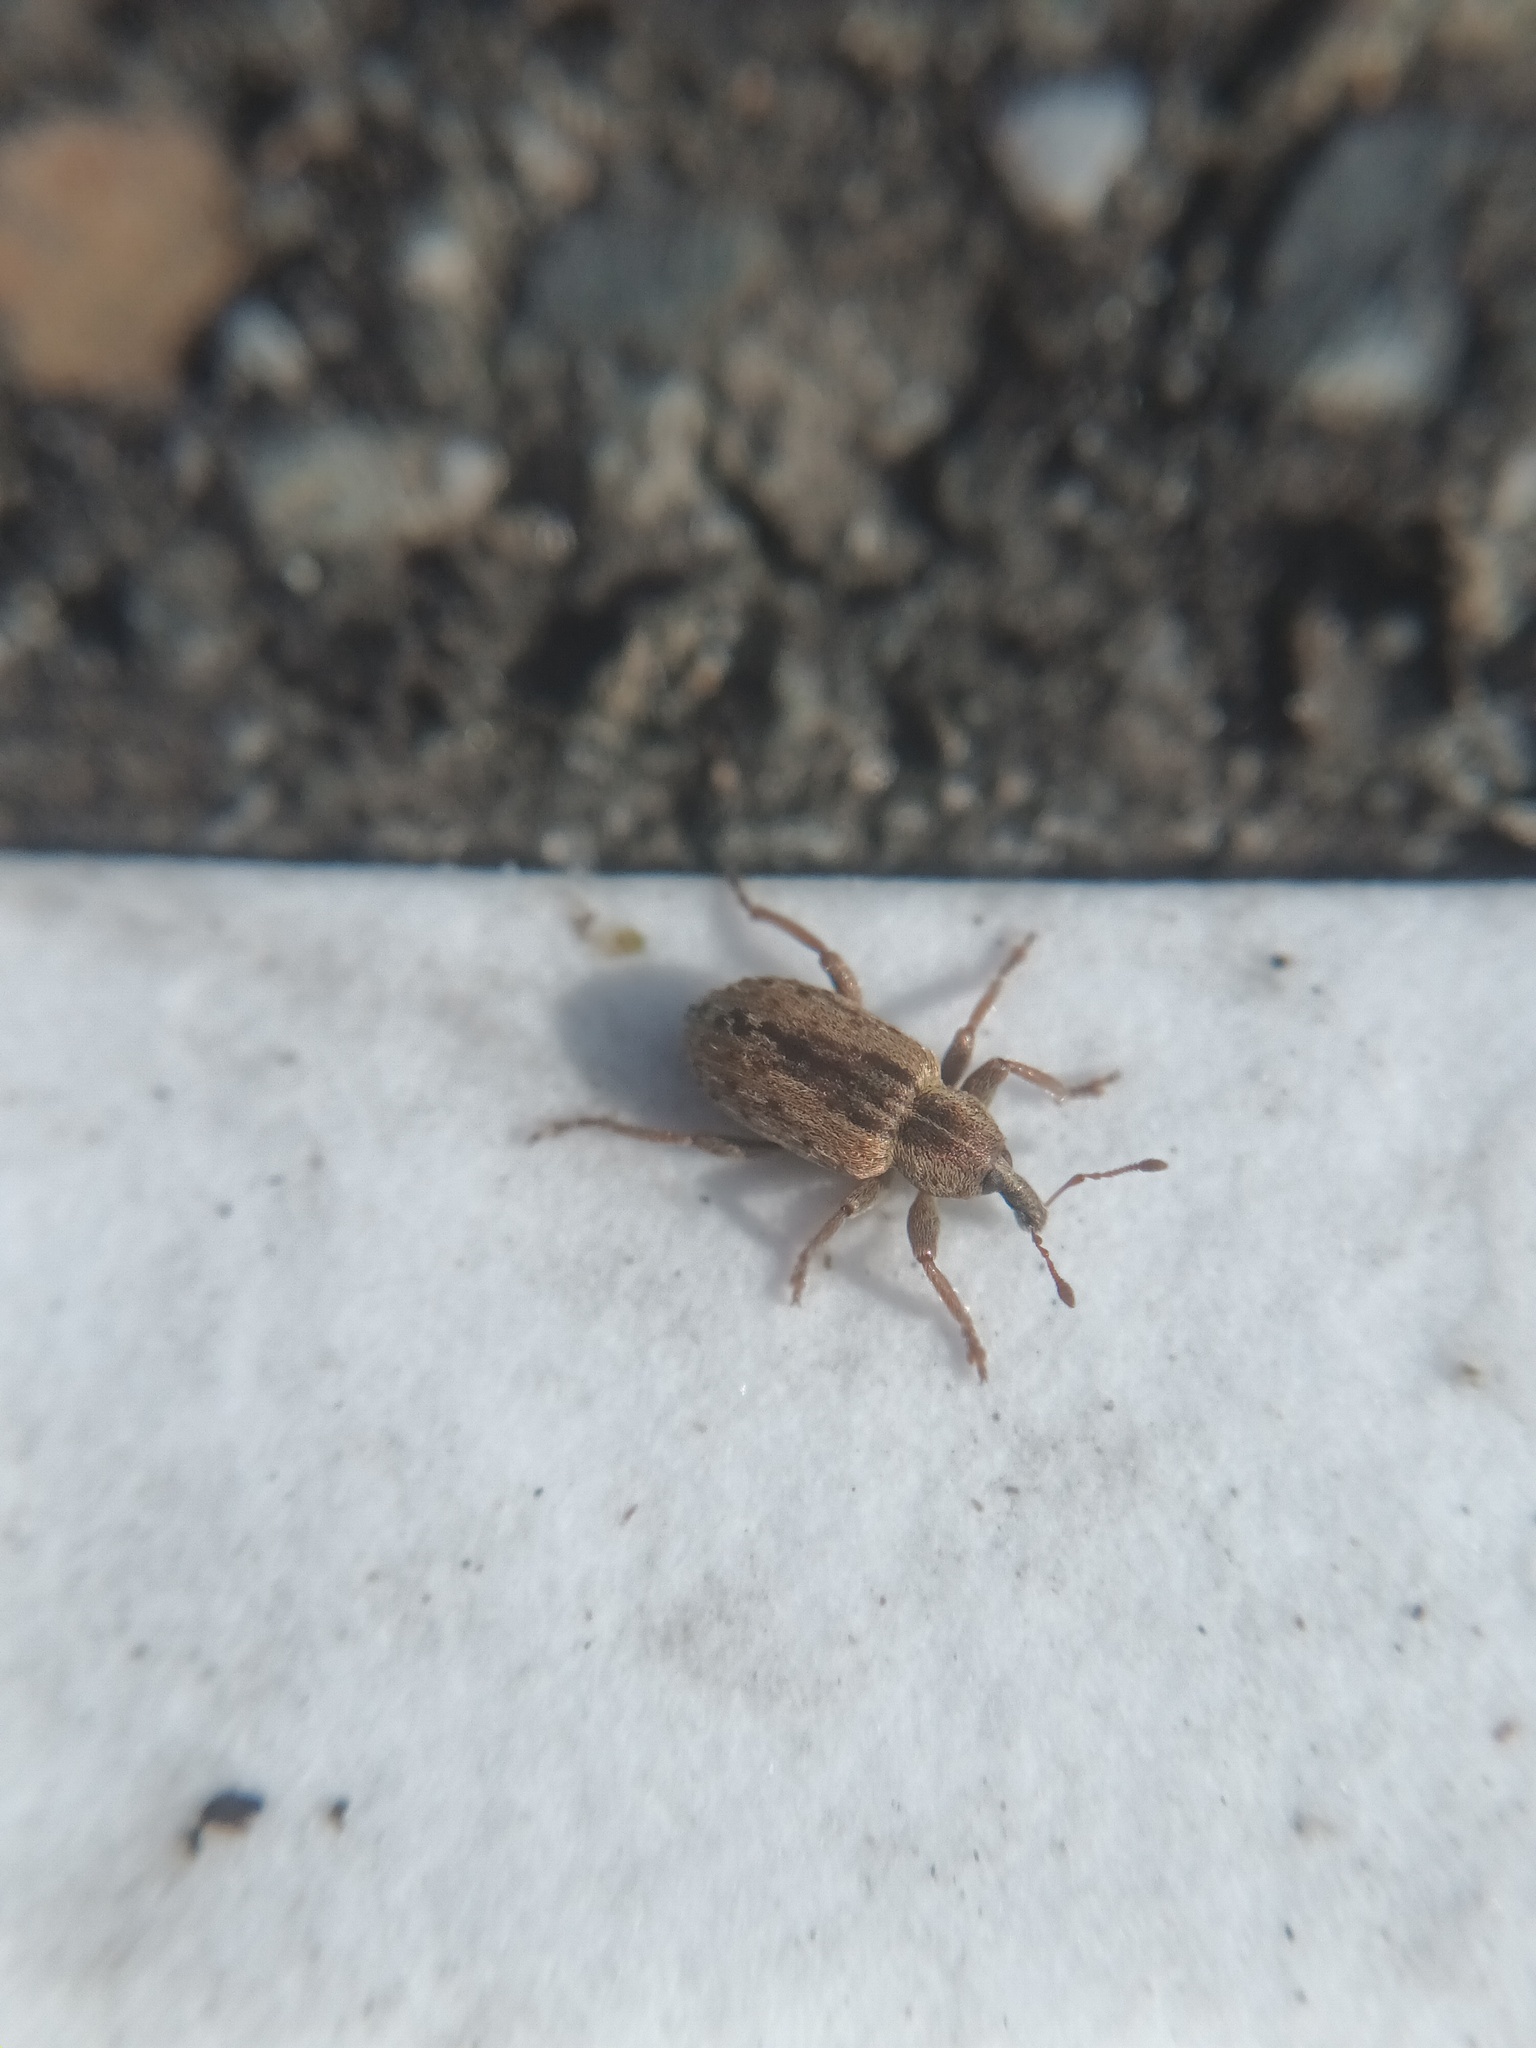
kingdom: Animalia
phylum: Arthropoda
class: Insecta
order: Coleoptera
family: Curculionidae
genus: Hypera
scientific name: Hypera postica
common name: Weevil
